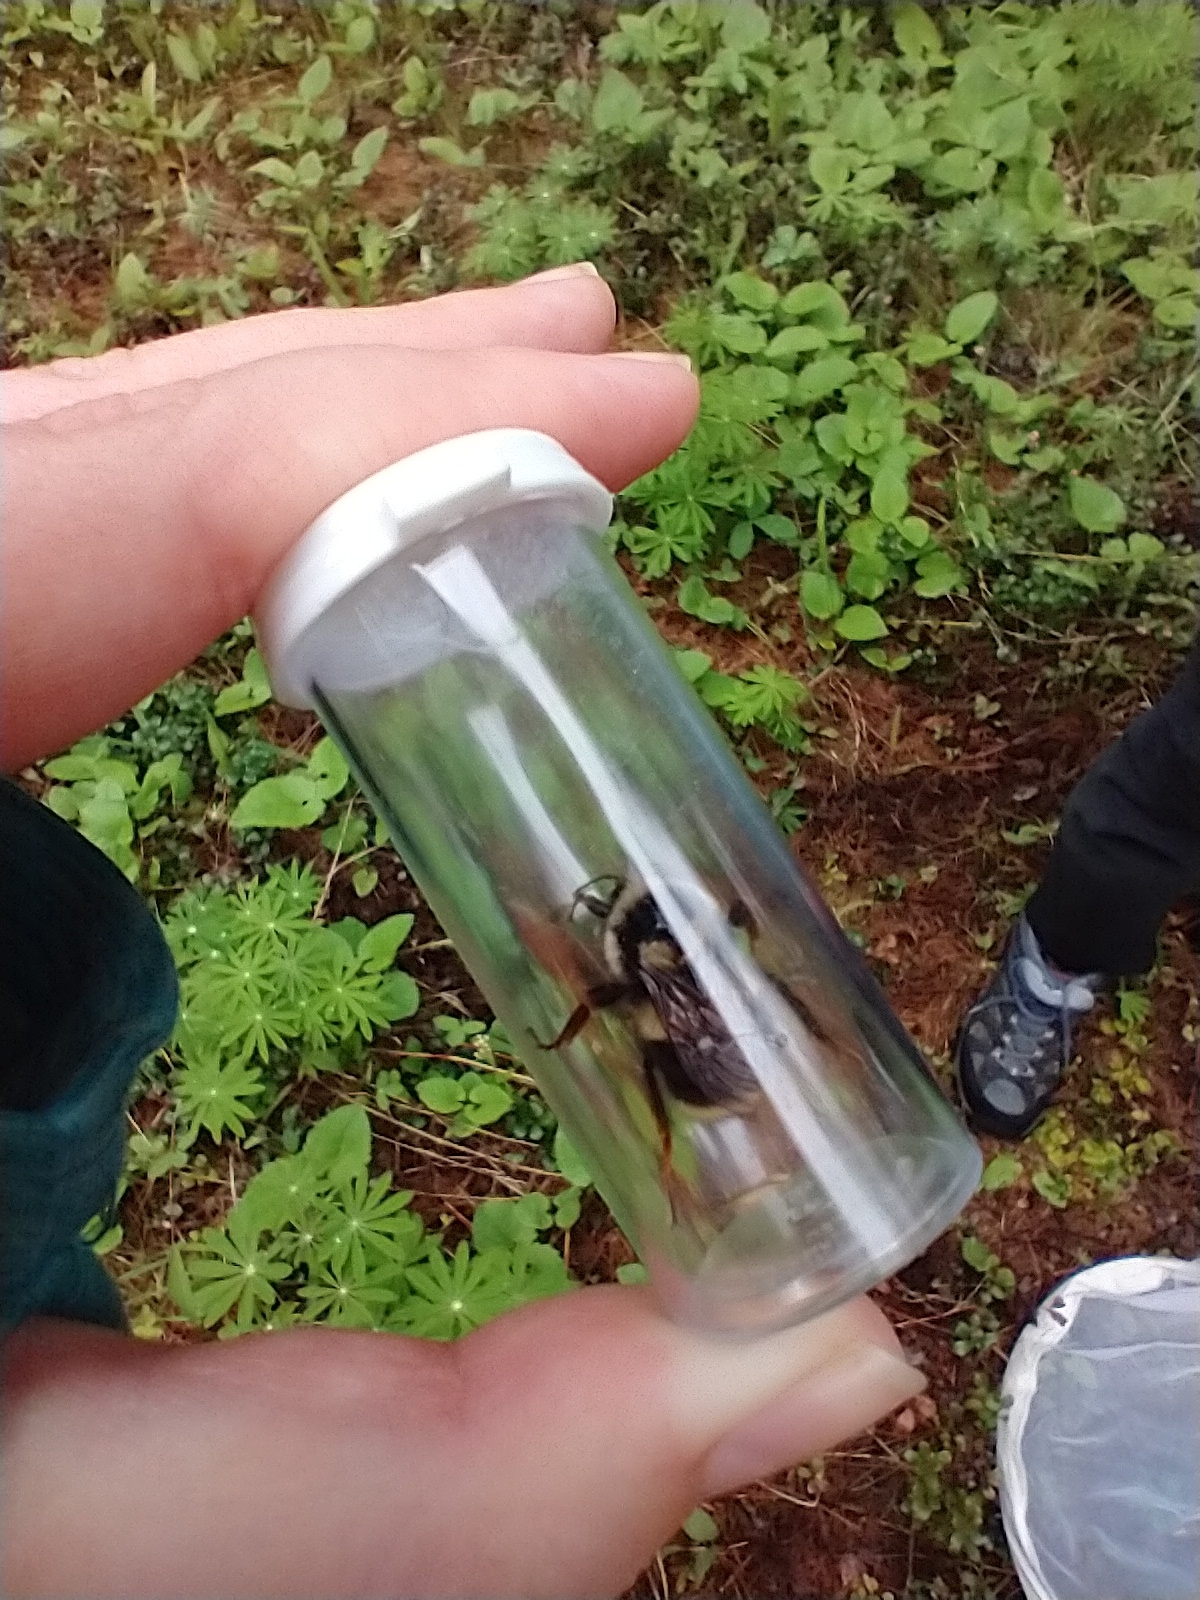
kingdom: Animalia
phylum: Arthropoda
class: Insecta
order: Hymenoptera
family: Apidae
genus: Bombus
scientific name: Bombus vancouverensis
